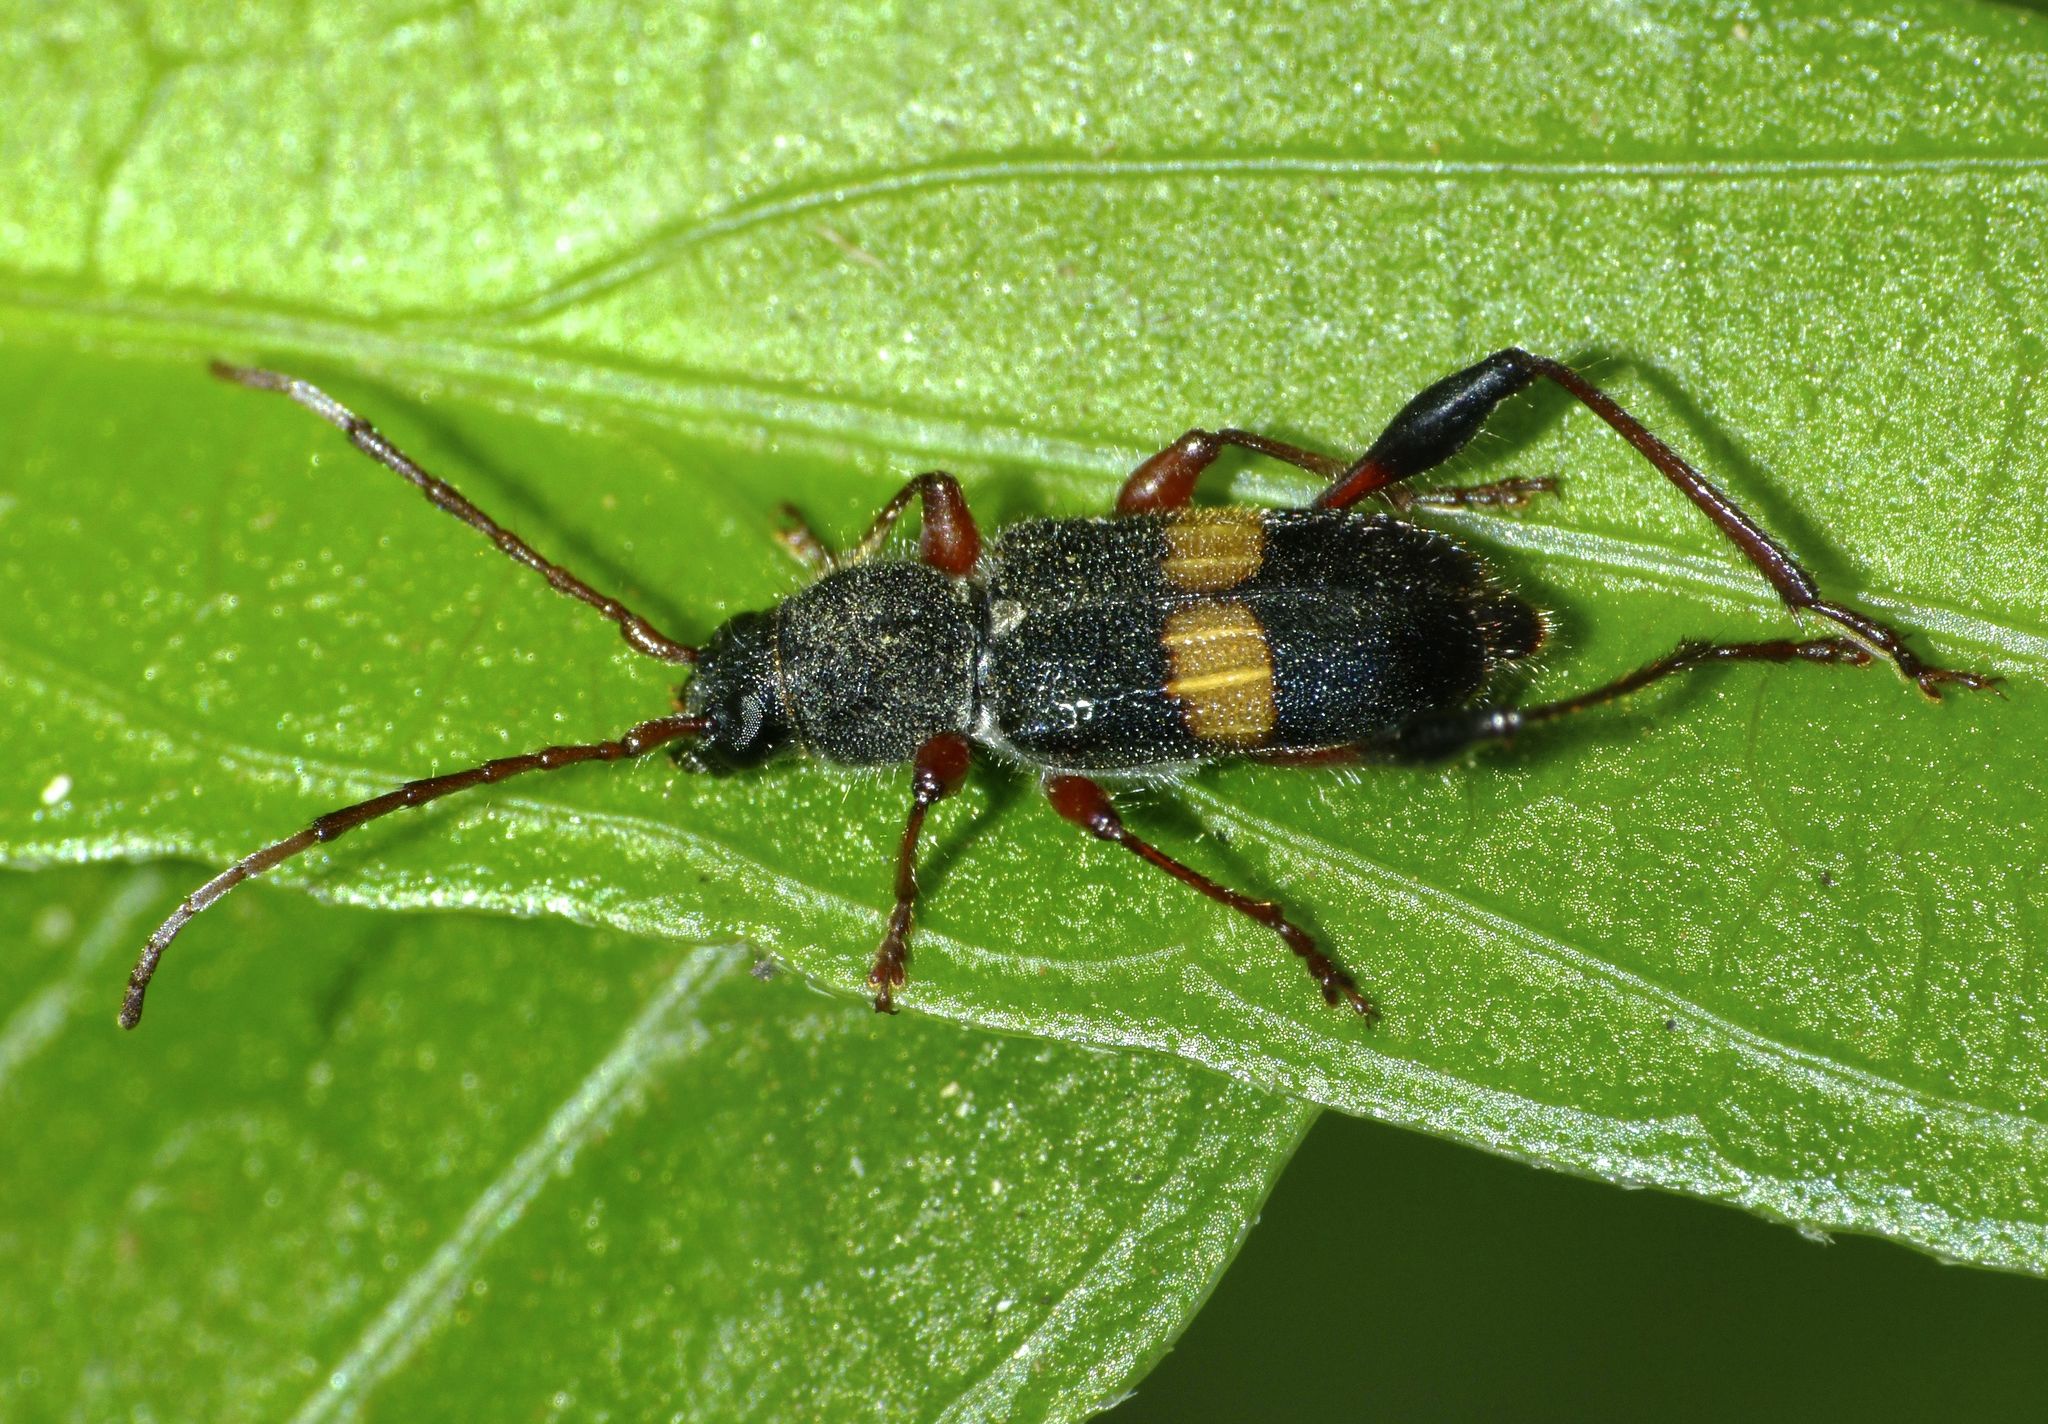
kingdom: Animalia
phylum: Arthropoda
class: Insecta
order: Coleoptera
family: Cerambycidae
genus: Obrida
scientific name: Obrida fascialis
